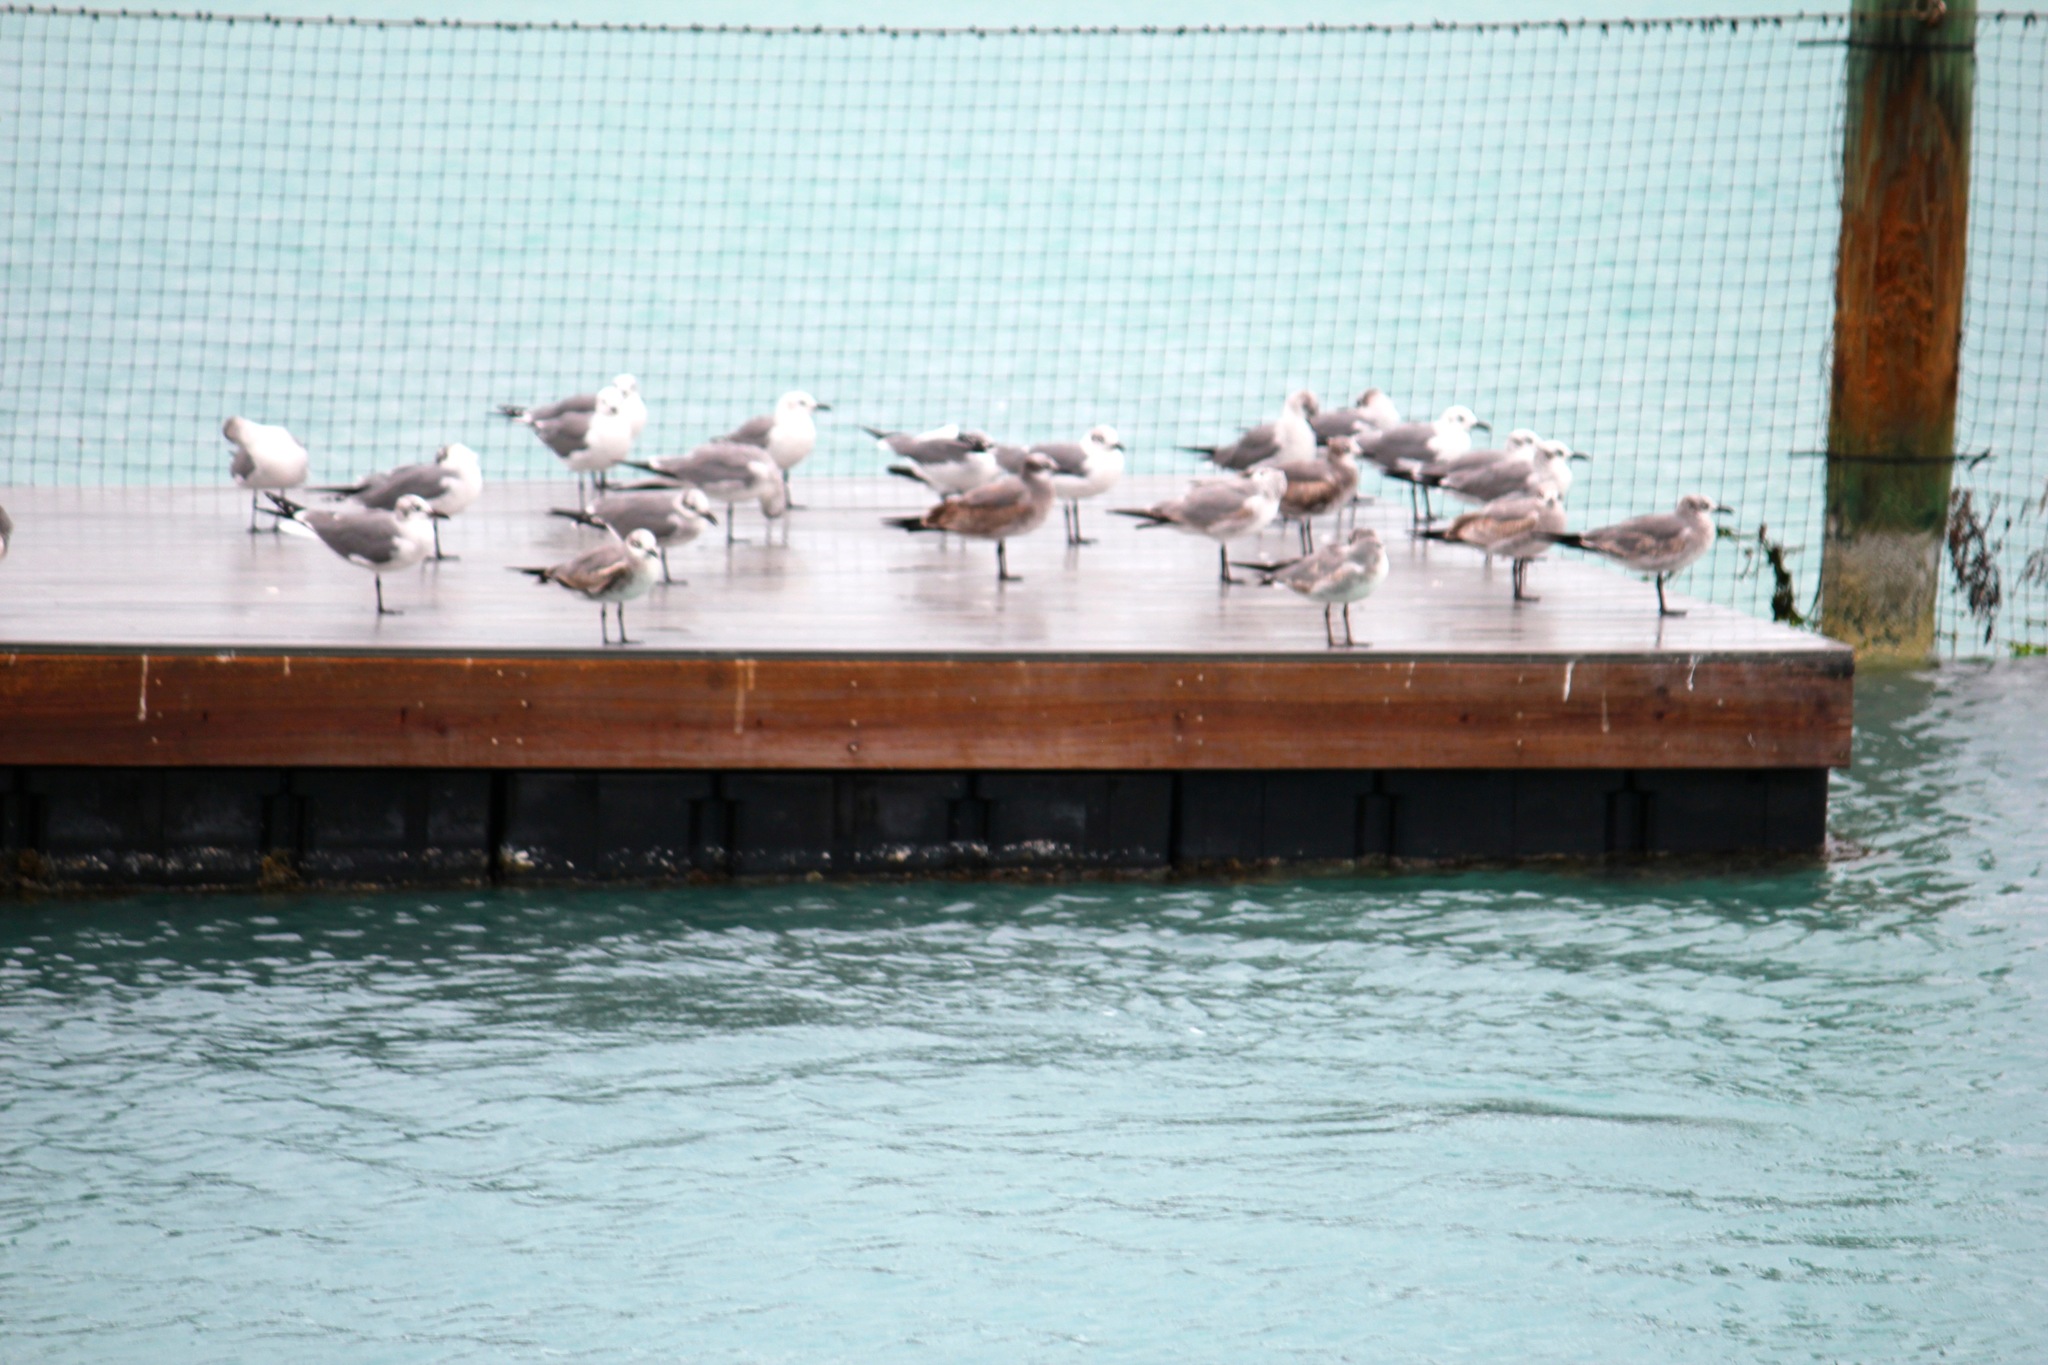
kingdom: Animalia
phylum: Chordata
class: Aves
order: Charadriiformes
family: Laridae
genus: Leucophaeus
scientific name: Leucophaeus atricilla
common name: Laughing gull
